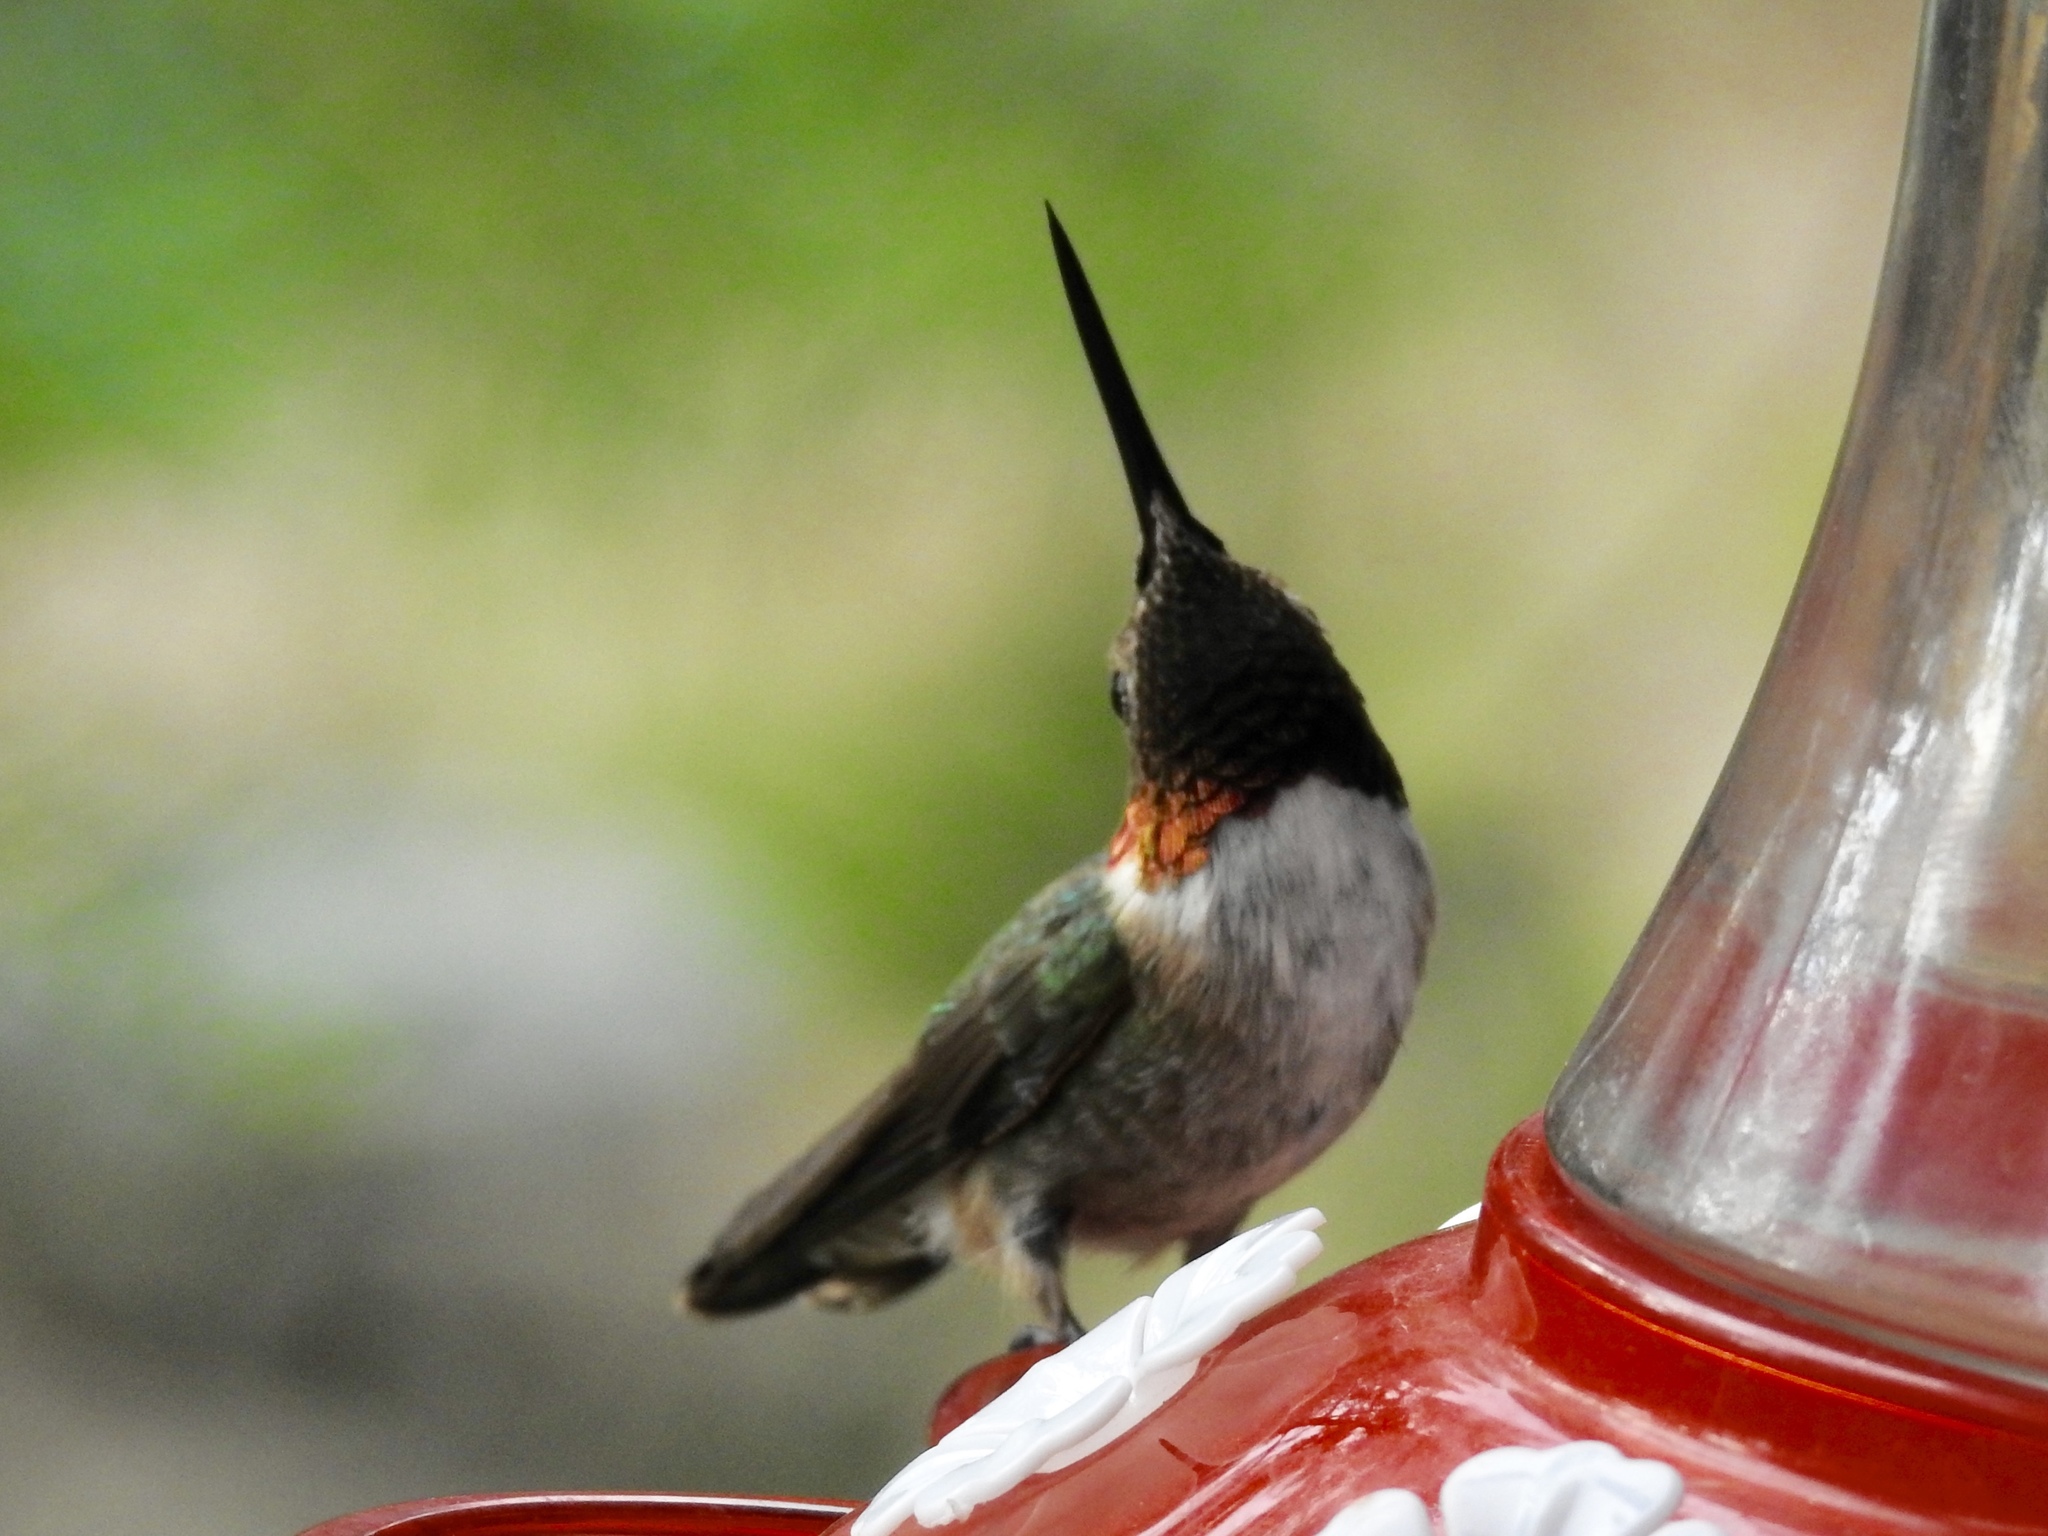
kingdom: Animalia
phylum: Chordata
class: Aves
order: Apodiformes
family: Trochilidae
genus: Selasphorus
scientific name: Selasphorus platycercus
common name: Broad-tailed hummingbird
